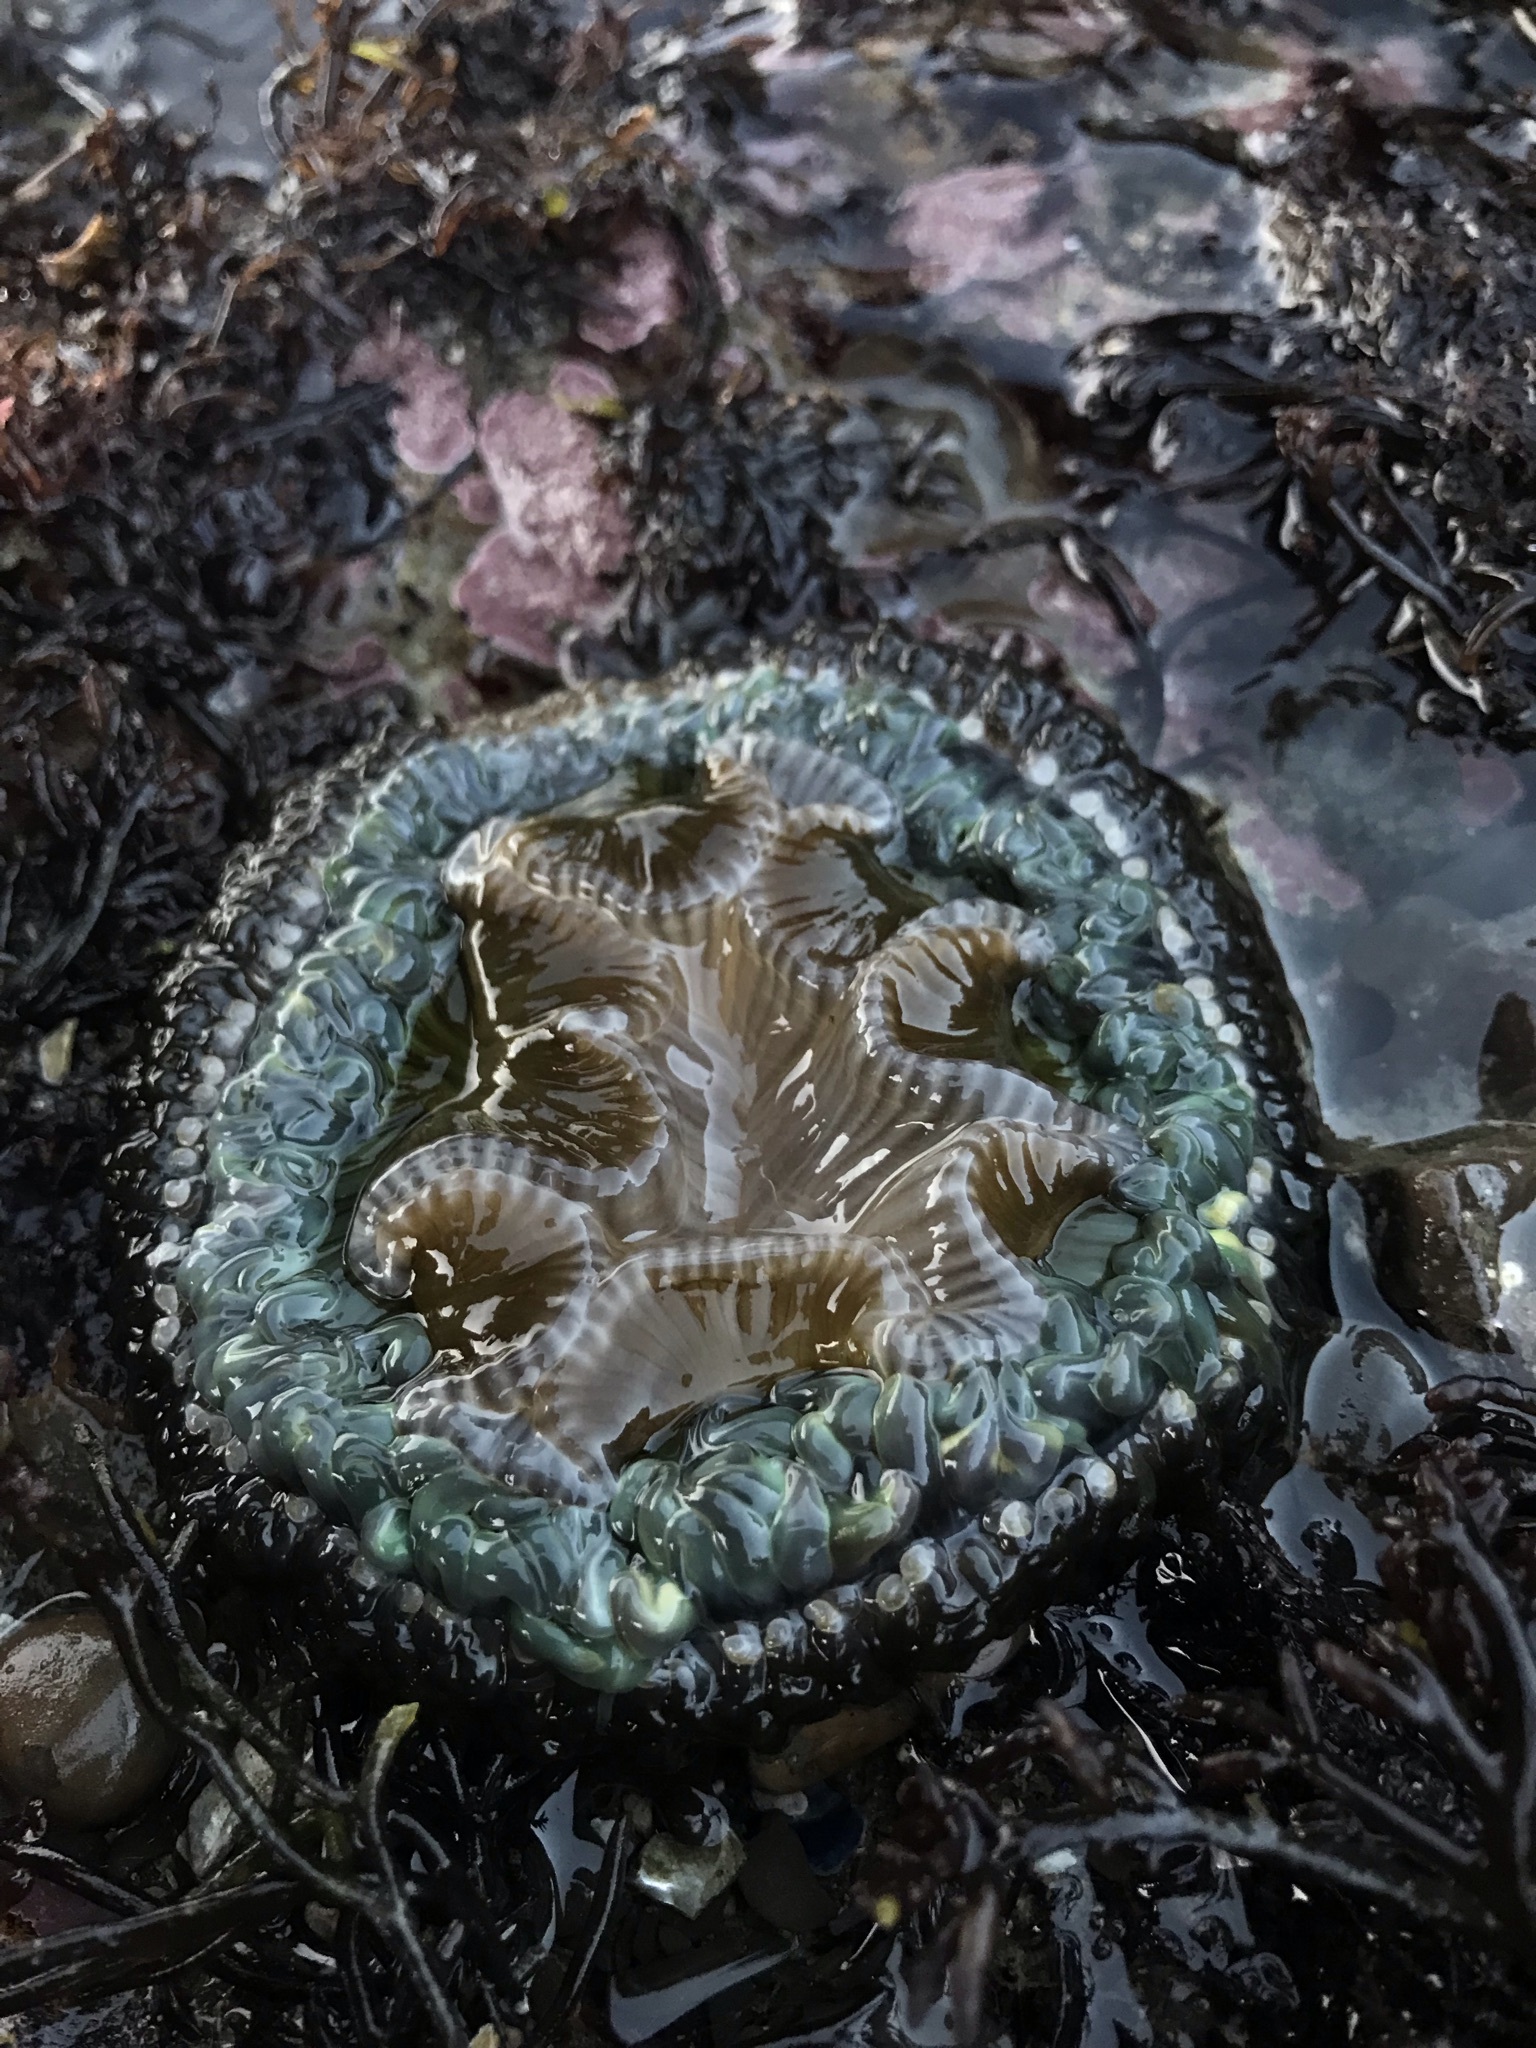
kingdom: Animalia
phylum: Cnidaria
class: Anthozoa
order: Actiniaria
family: Actiniidae
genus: Anthopleura
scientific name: Anthopleura sola
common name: Sun anemone
